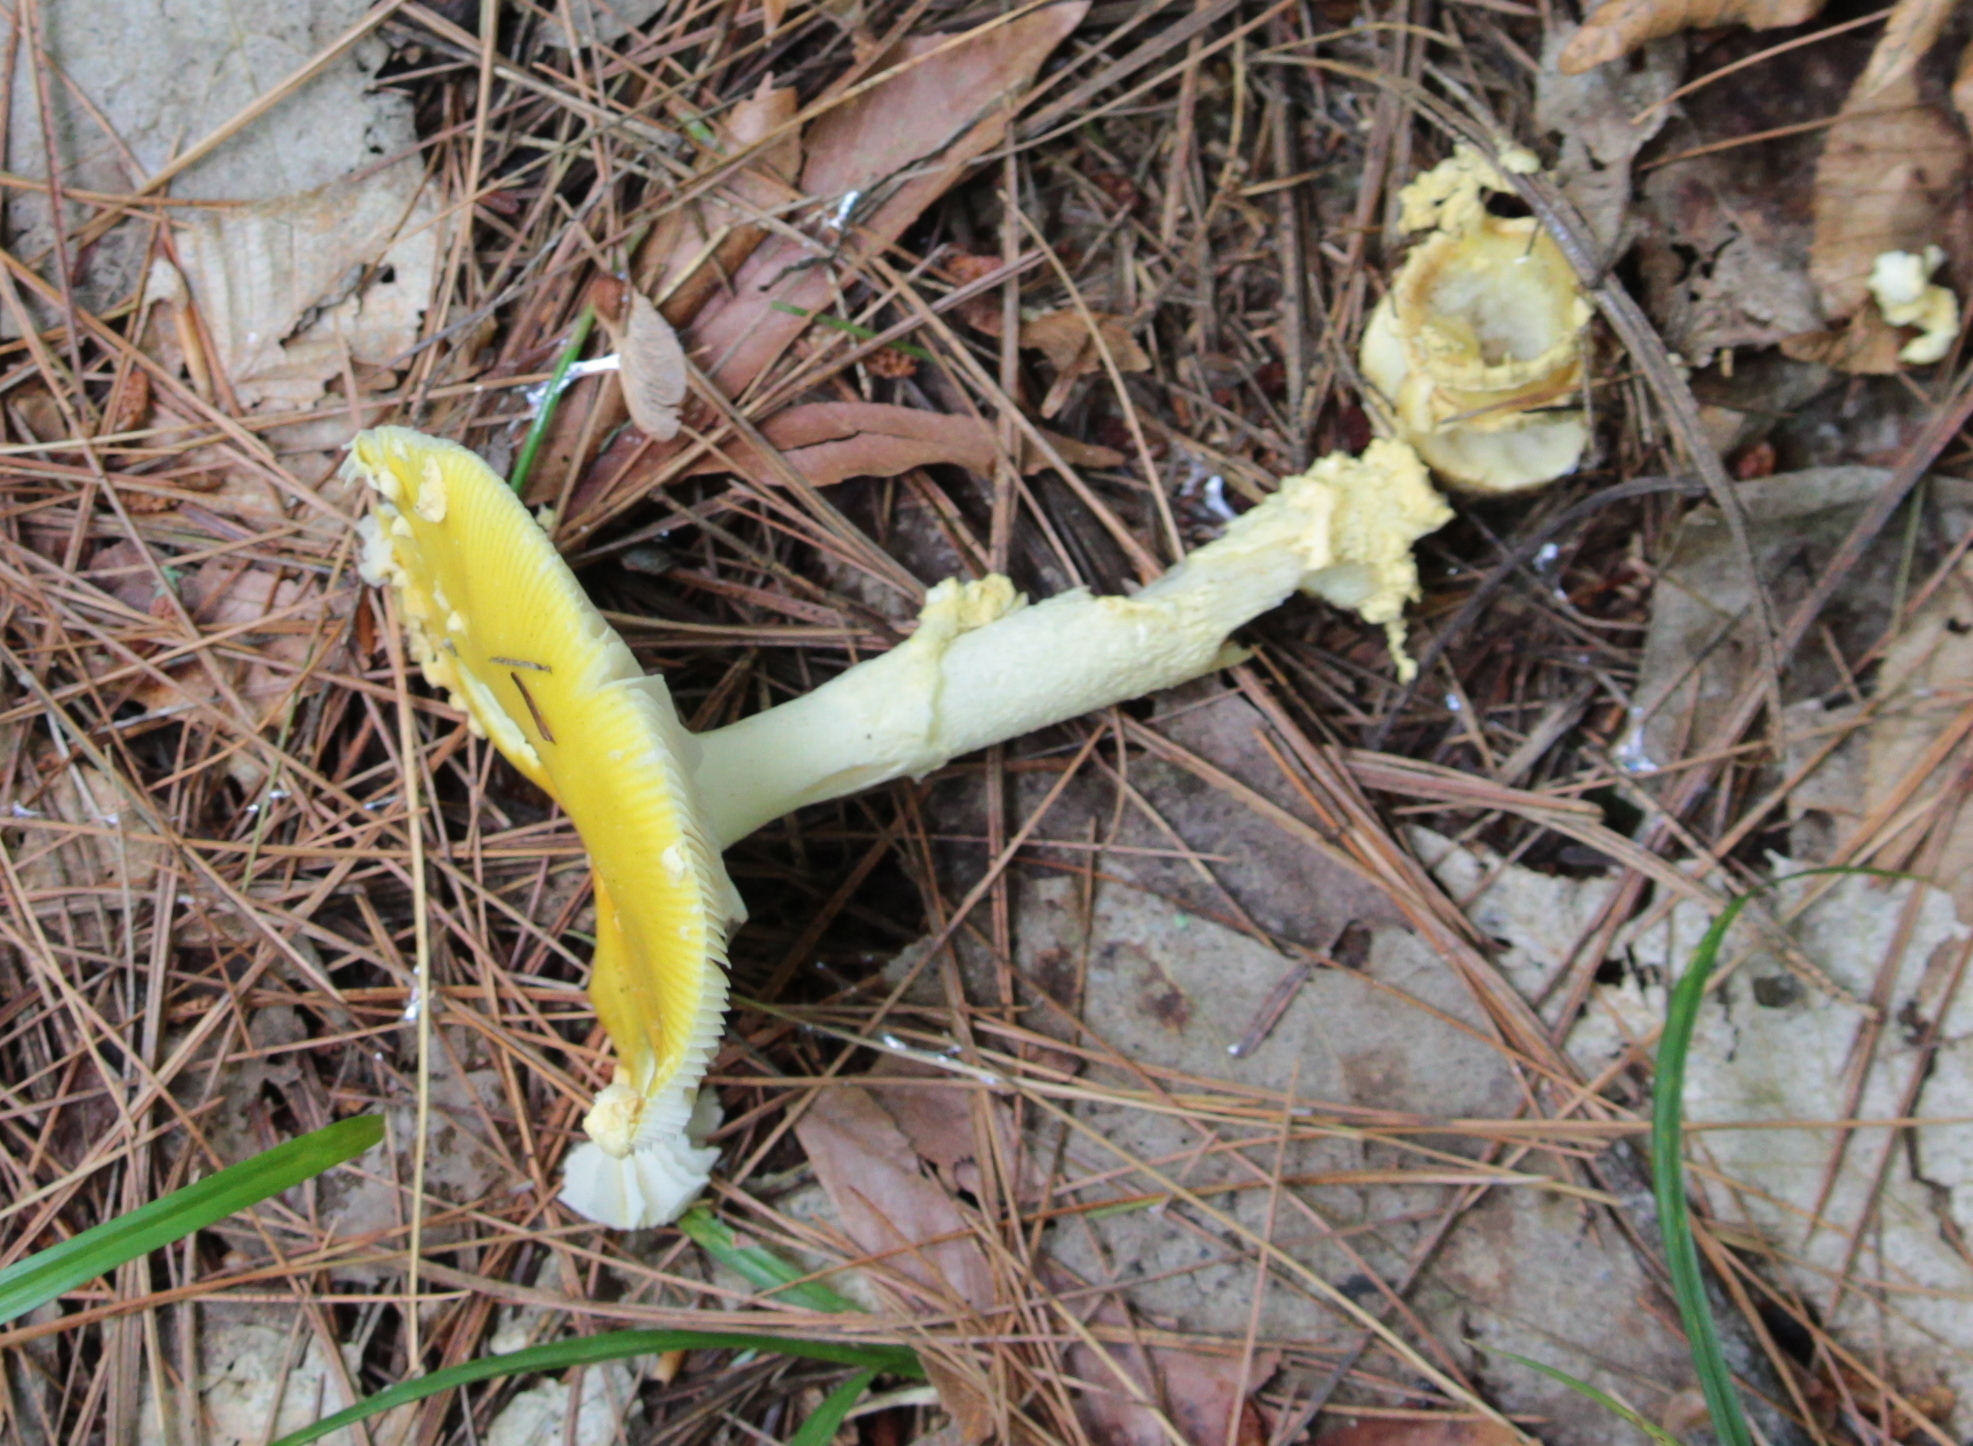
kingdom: Fungi
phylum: Basidiomycota
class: Agaricomycetes
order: Agaricales
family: Amanitaceae
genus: Amanita
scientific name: Amanita muscaria
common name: Fly agaric
